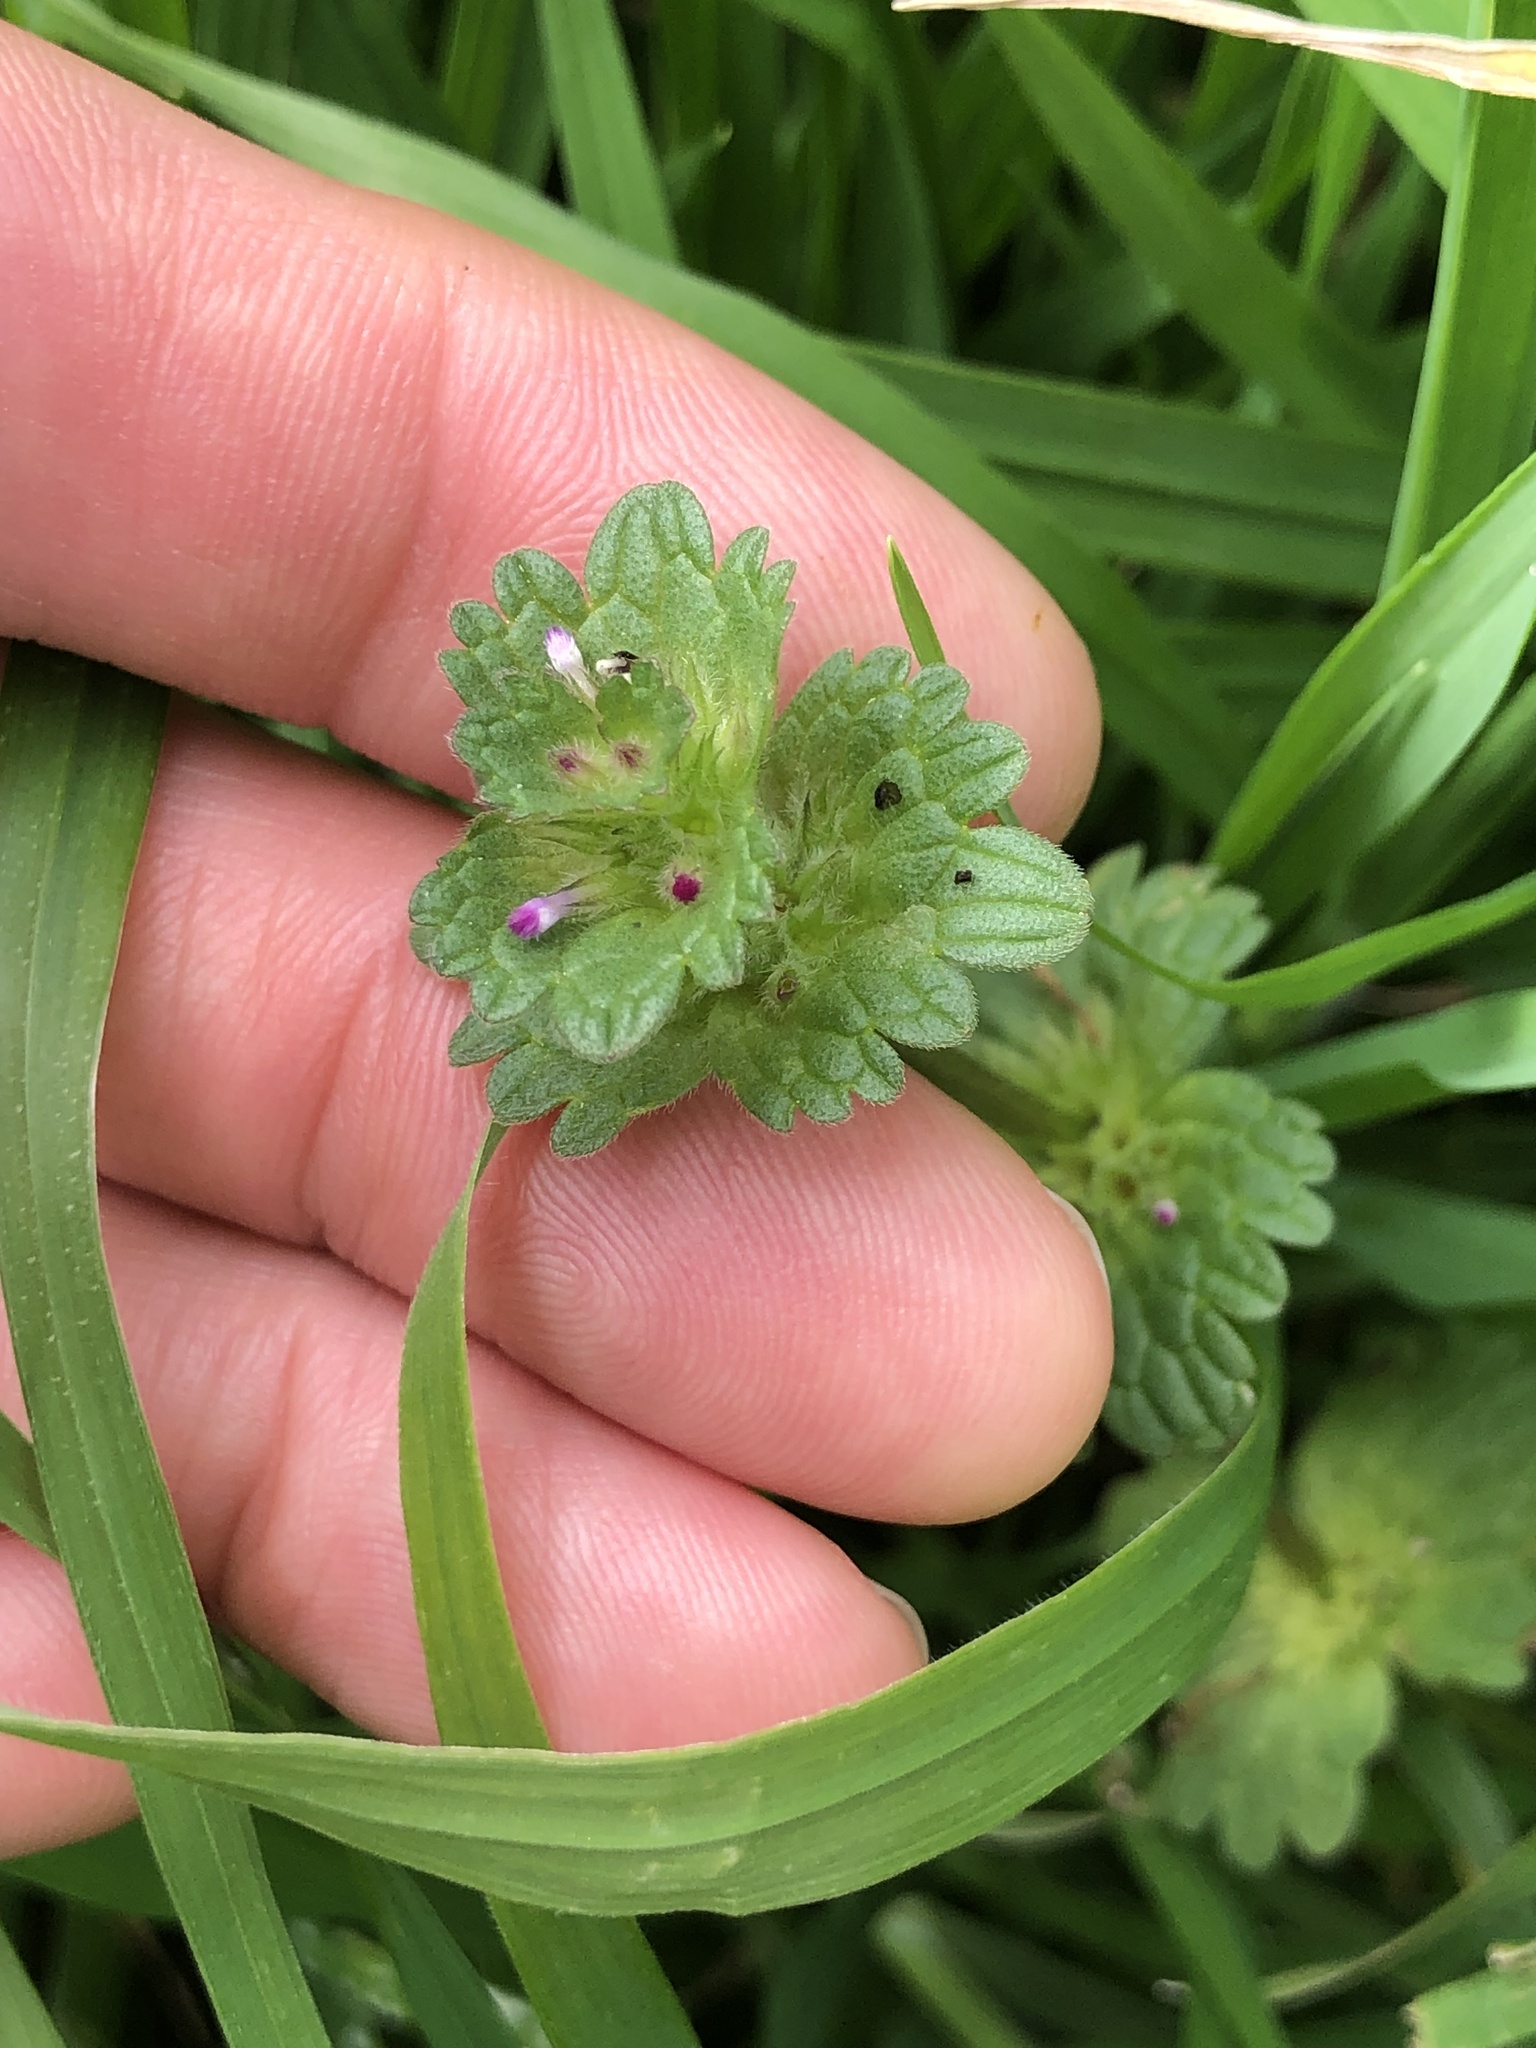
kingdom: Plantae
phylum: Tracheophyta
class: Magnoliopsida
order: Lamiales
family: Lamiaceae
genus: Lamium
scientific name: Lamium amplexicaule
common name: Henbit dead-nettle
